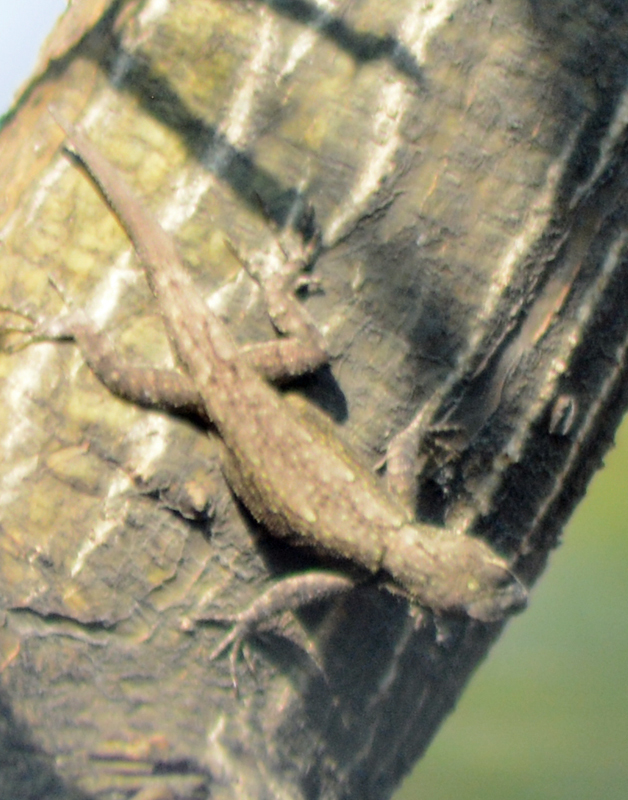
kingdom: Animalia
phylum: Chordata
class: Squamata
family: Phrynosomatidae
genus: Sceloporus
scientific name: Sceloporus grammicus
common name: Mesquite lizard
